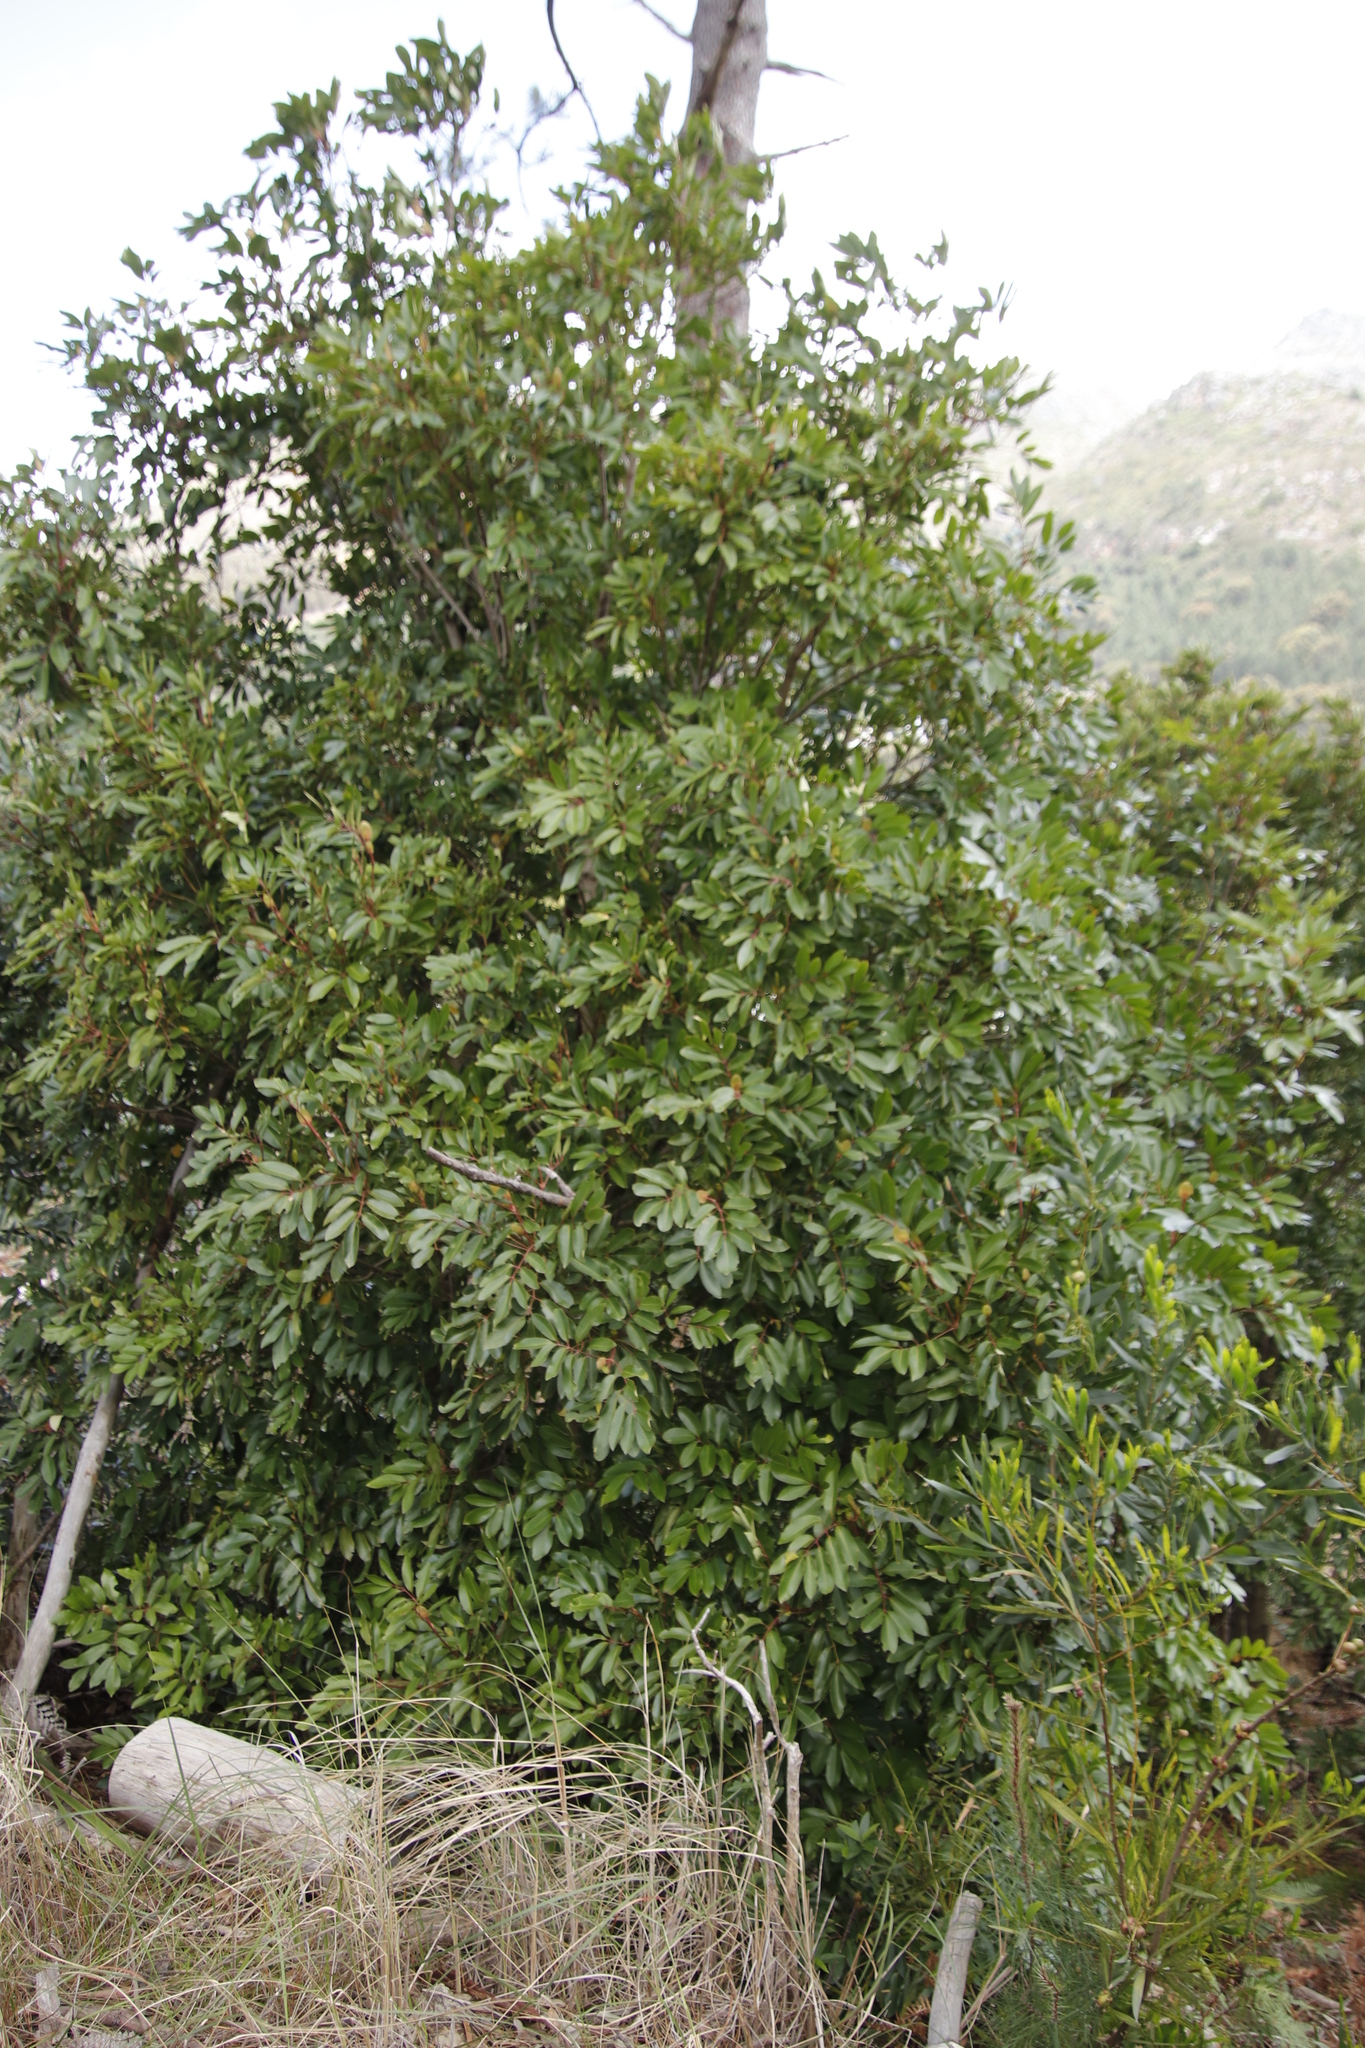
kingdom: Plantae
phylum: Tracheophyta
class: Magnoliopsida
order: Oxalidales
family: Cunoniaceae
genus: Cunonia
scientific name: Cunonia capensis
